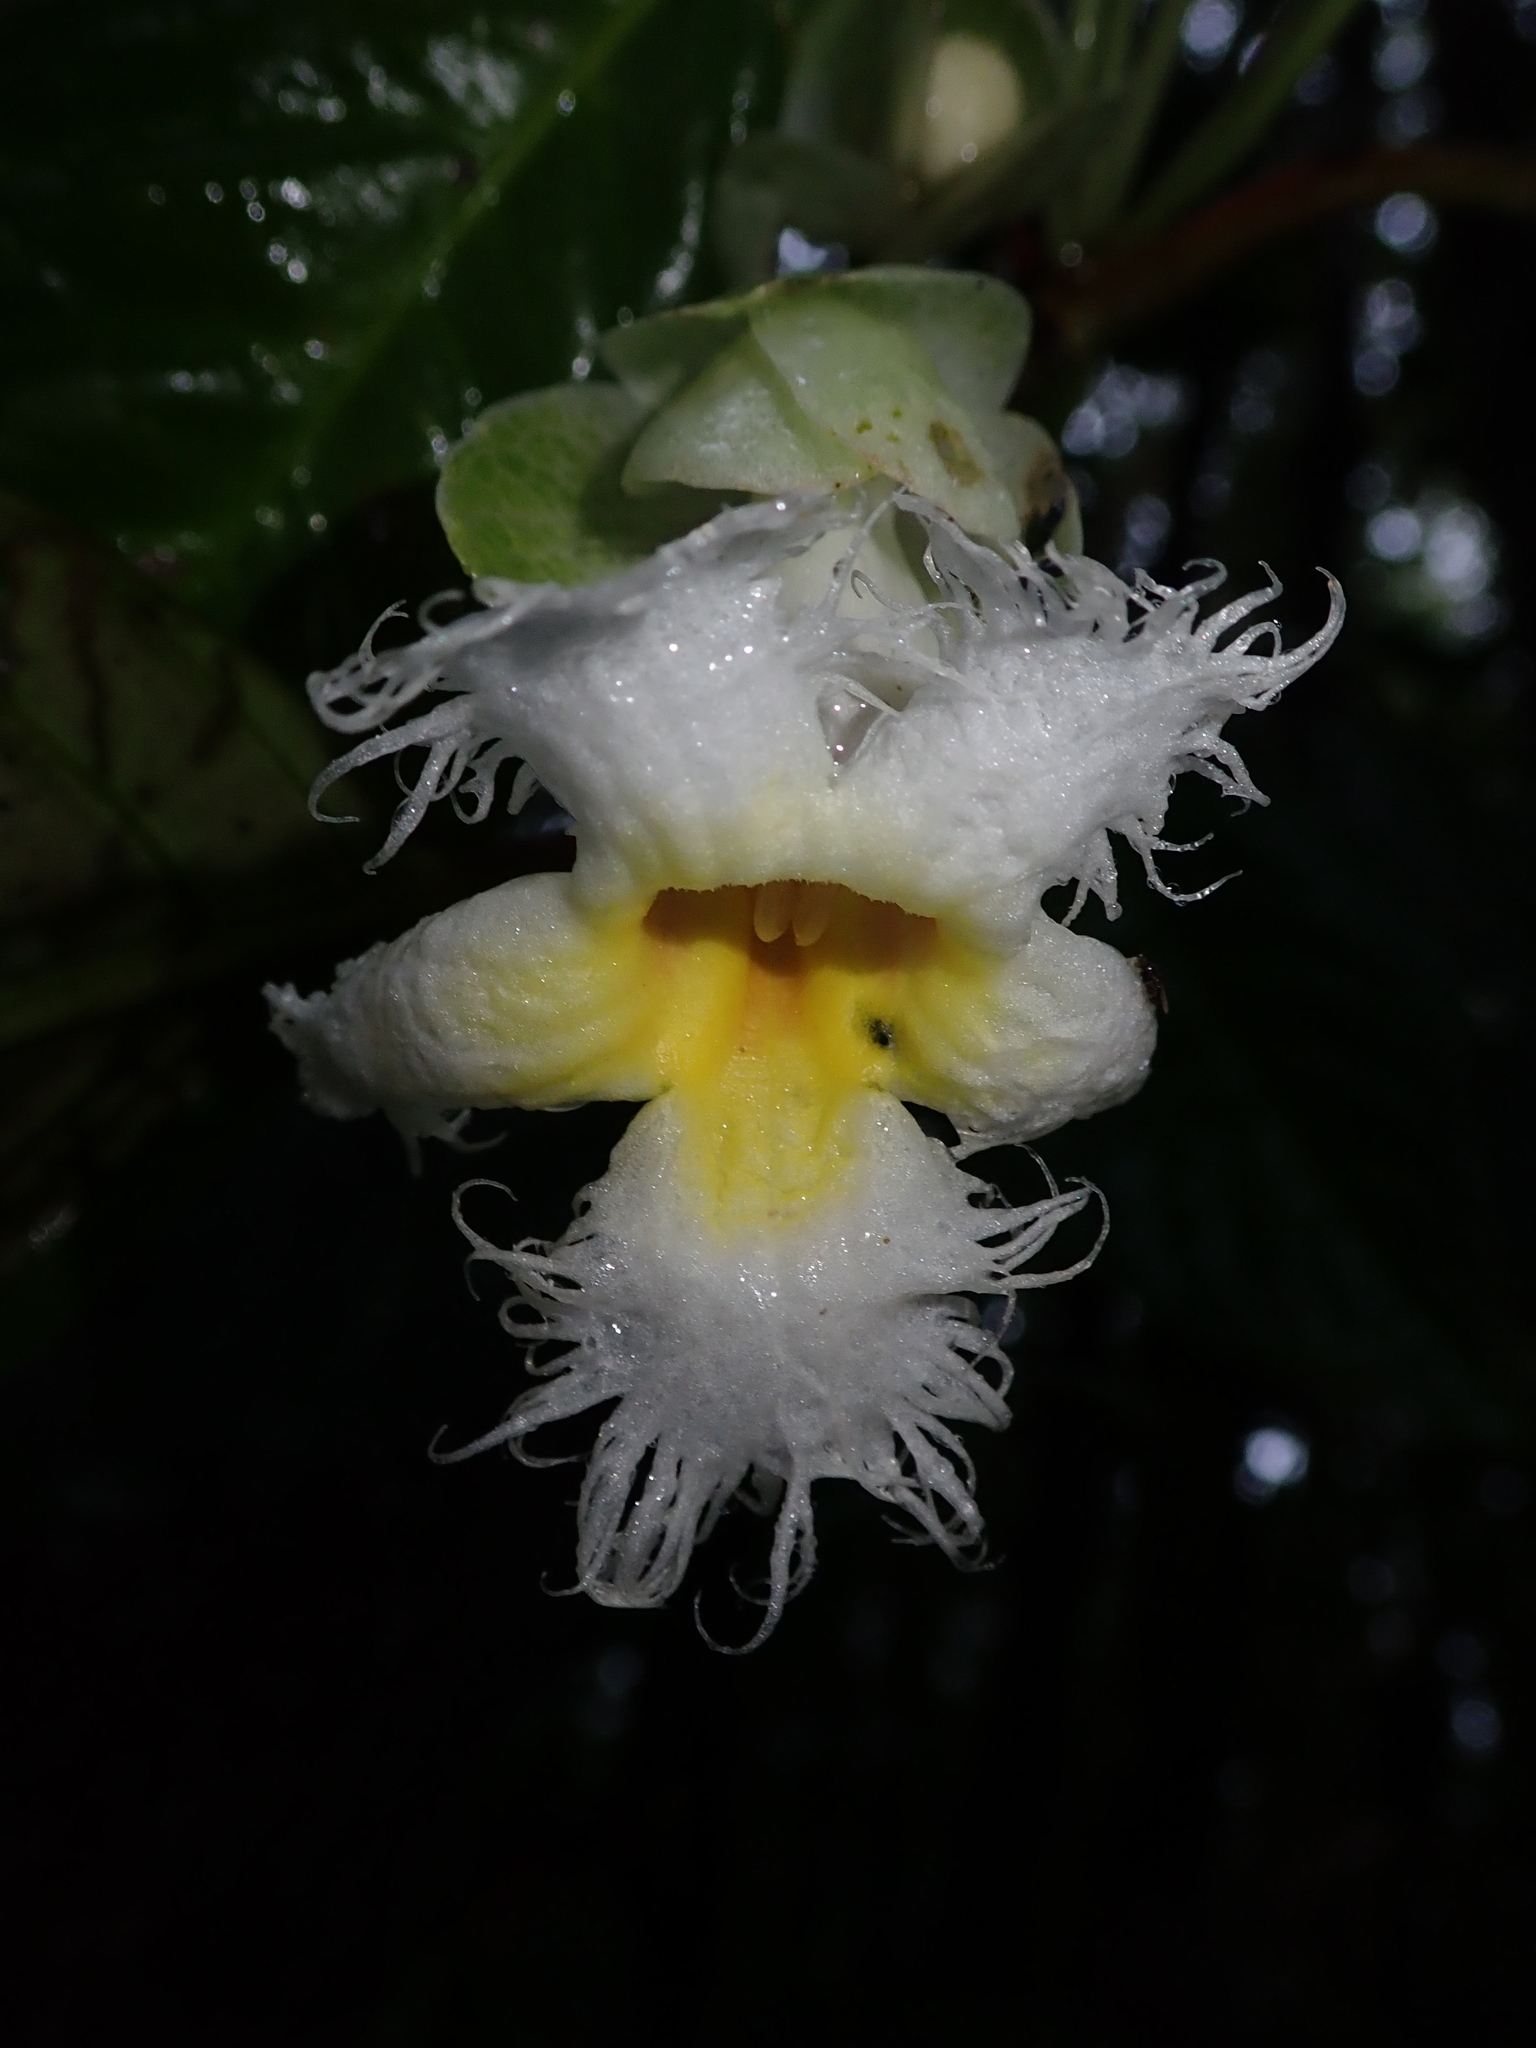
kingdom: Plantae
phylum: Tracheophyta
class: Magnoliopsida
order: Lamiales
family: Gesneriaceae
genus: Drymonia
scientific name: Drymonia brochidodroma
